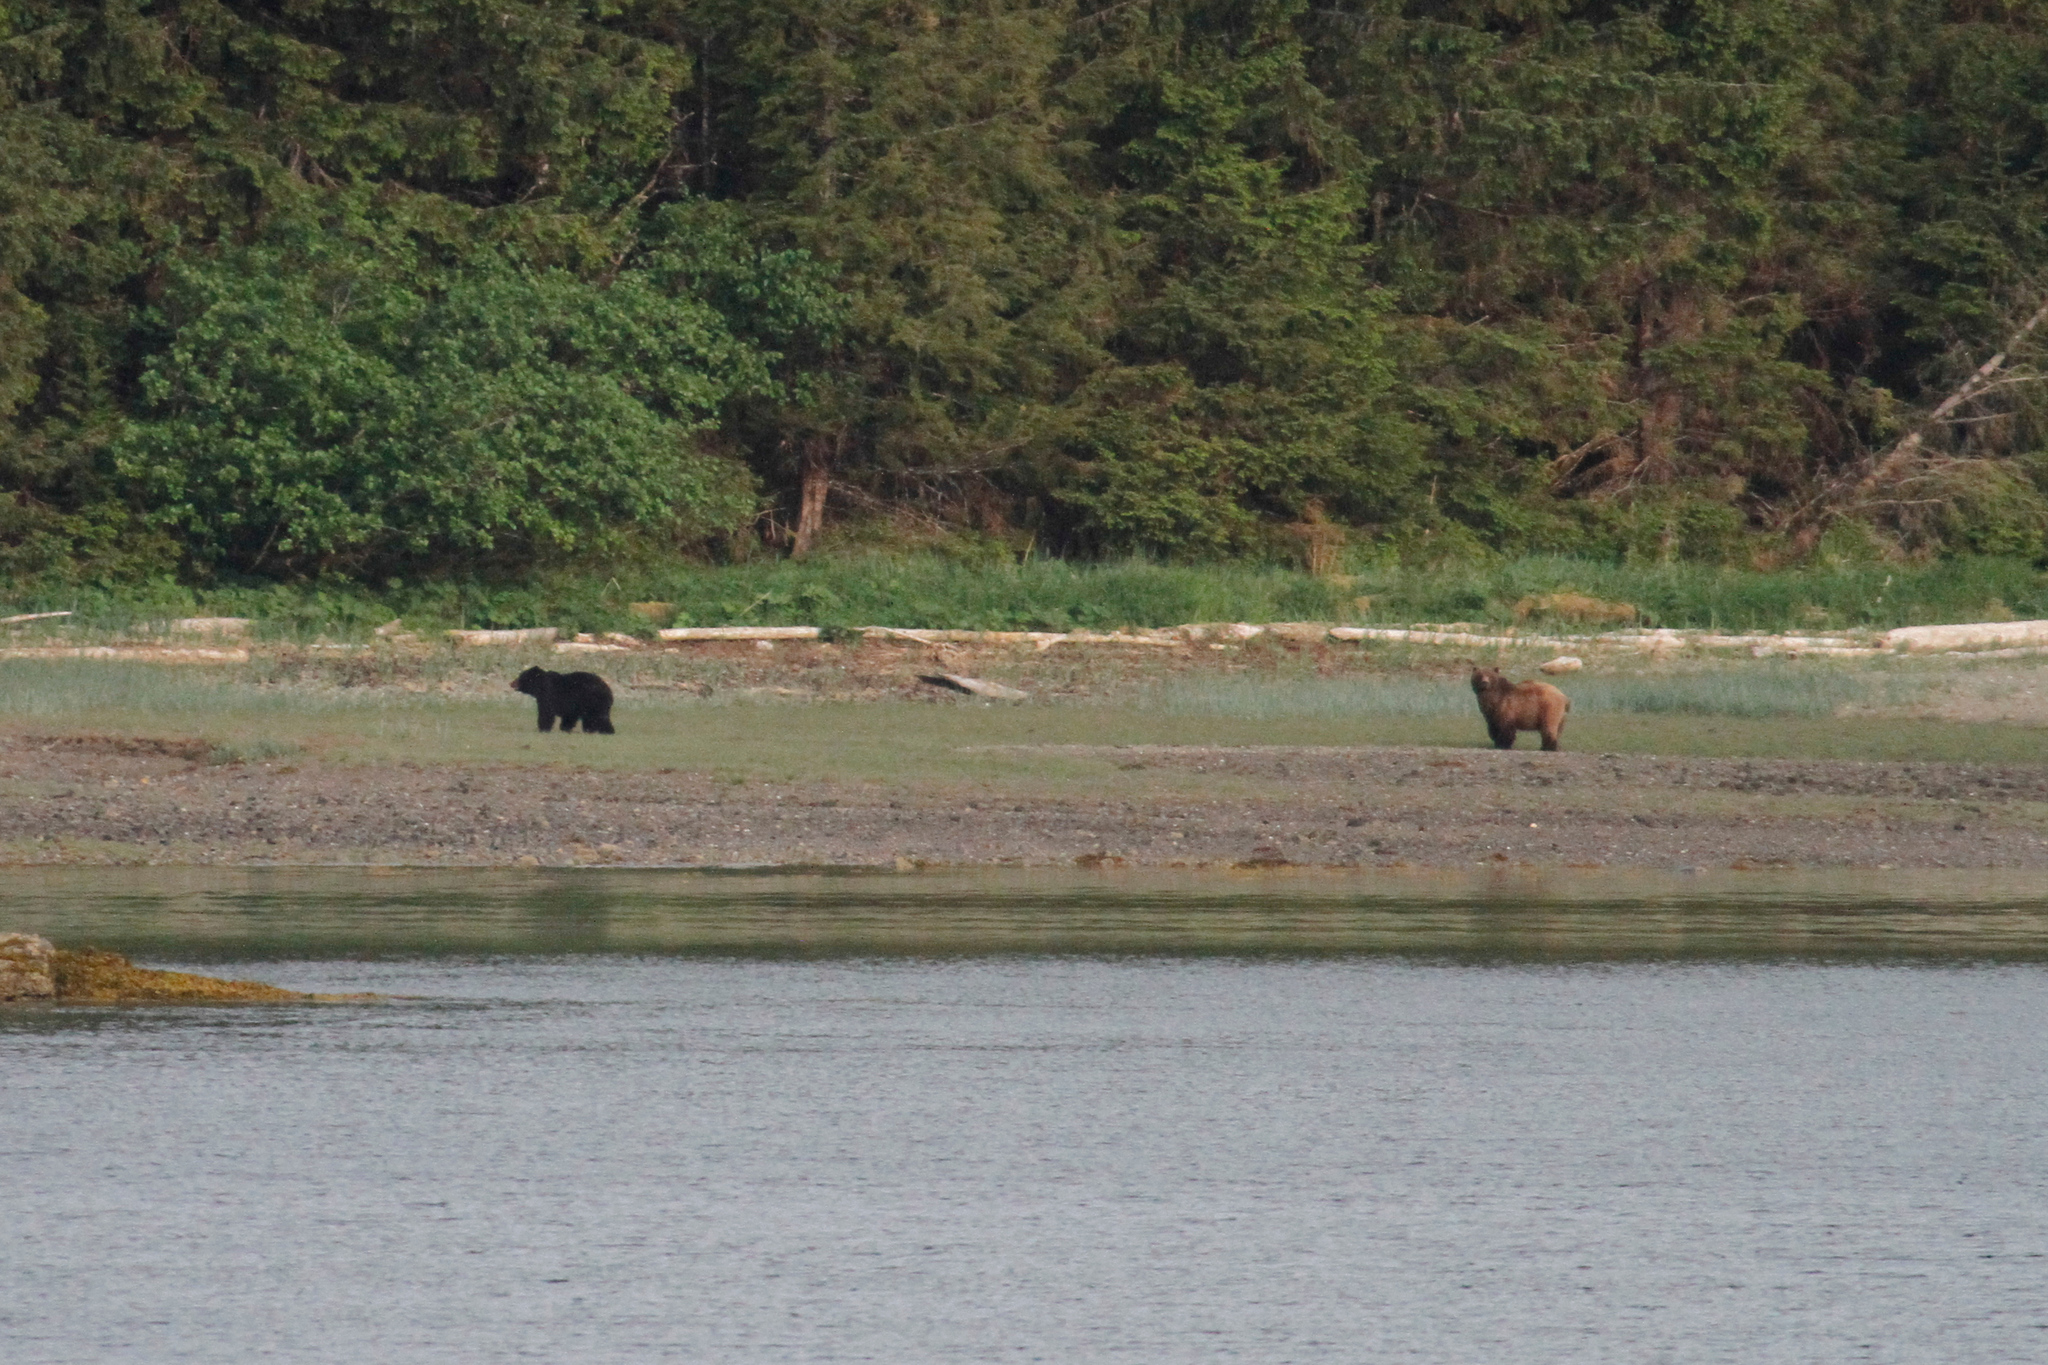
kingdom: Animalia
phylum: Chordata
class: Mammalia
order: Carnivora
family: Ursidae
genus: Ursus
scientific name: Ursus arctos
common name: Brown bear
